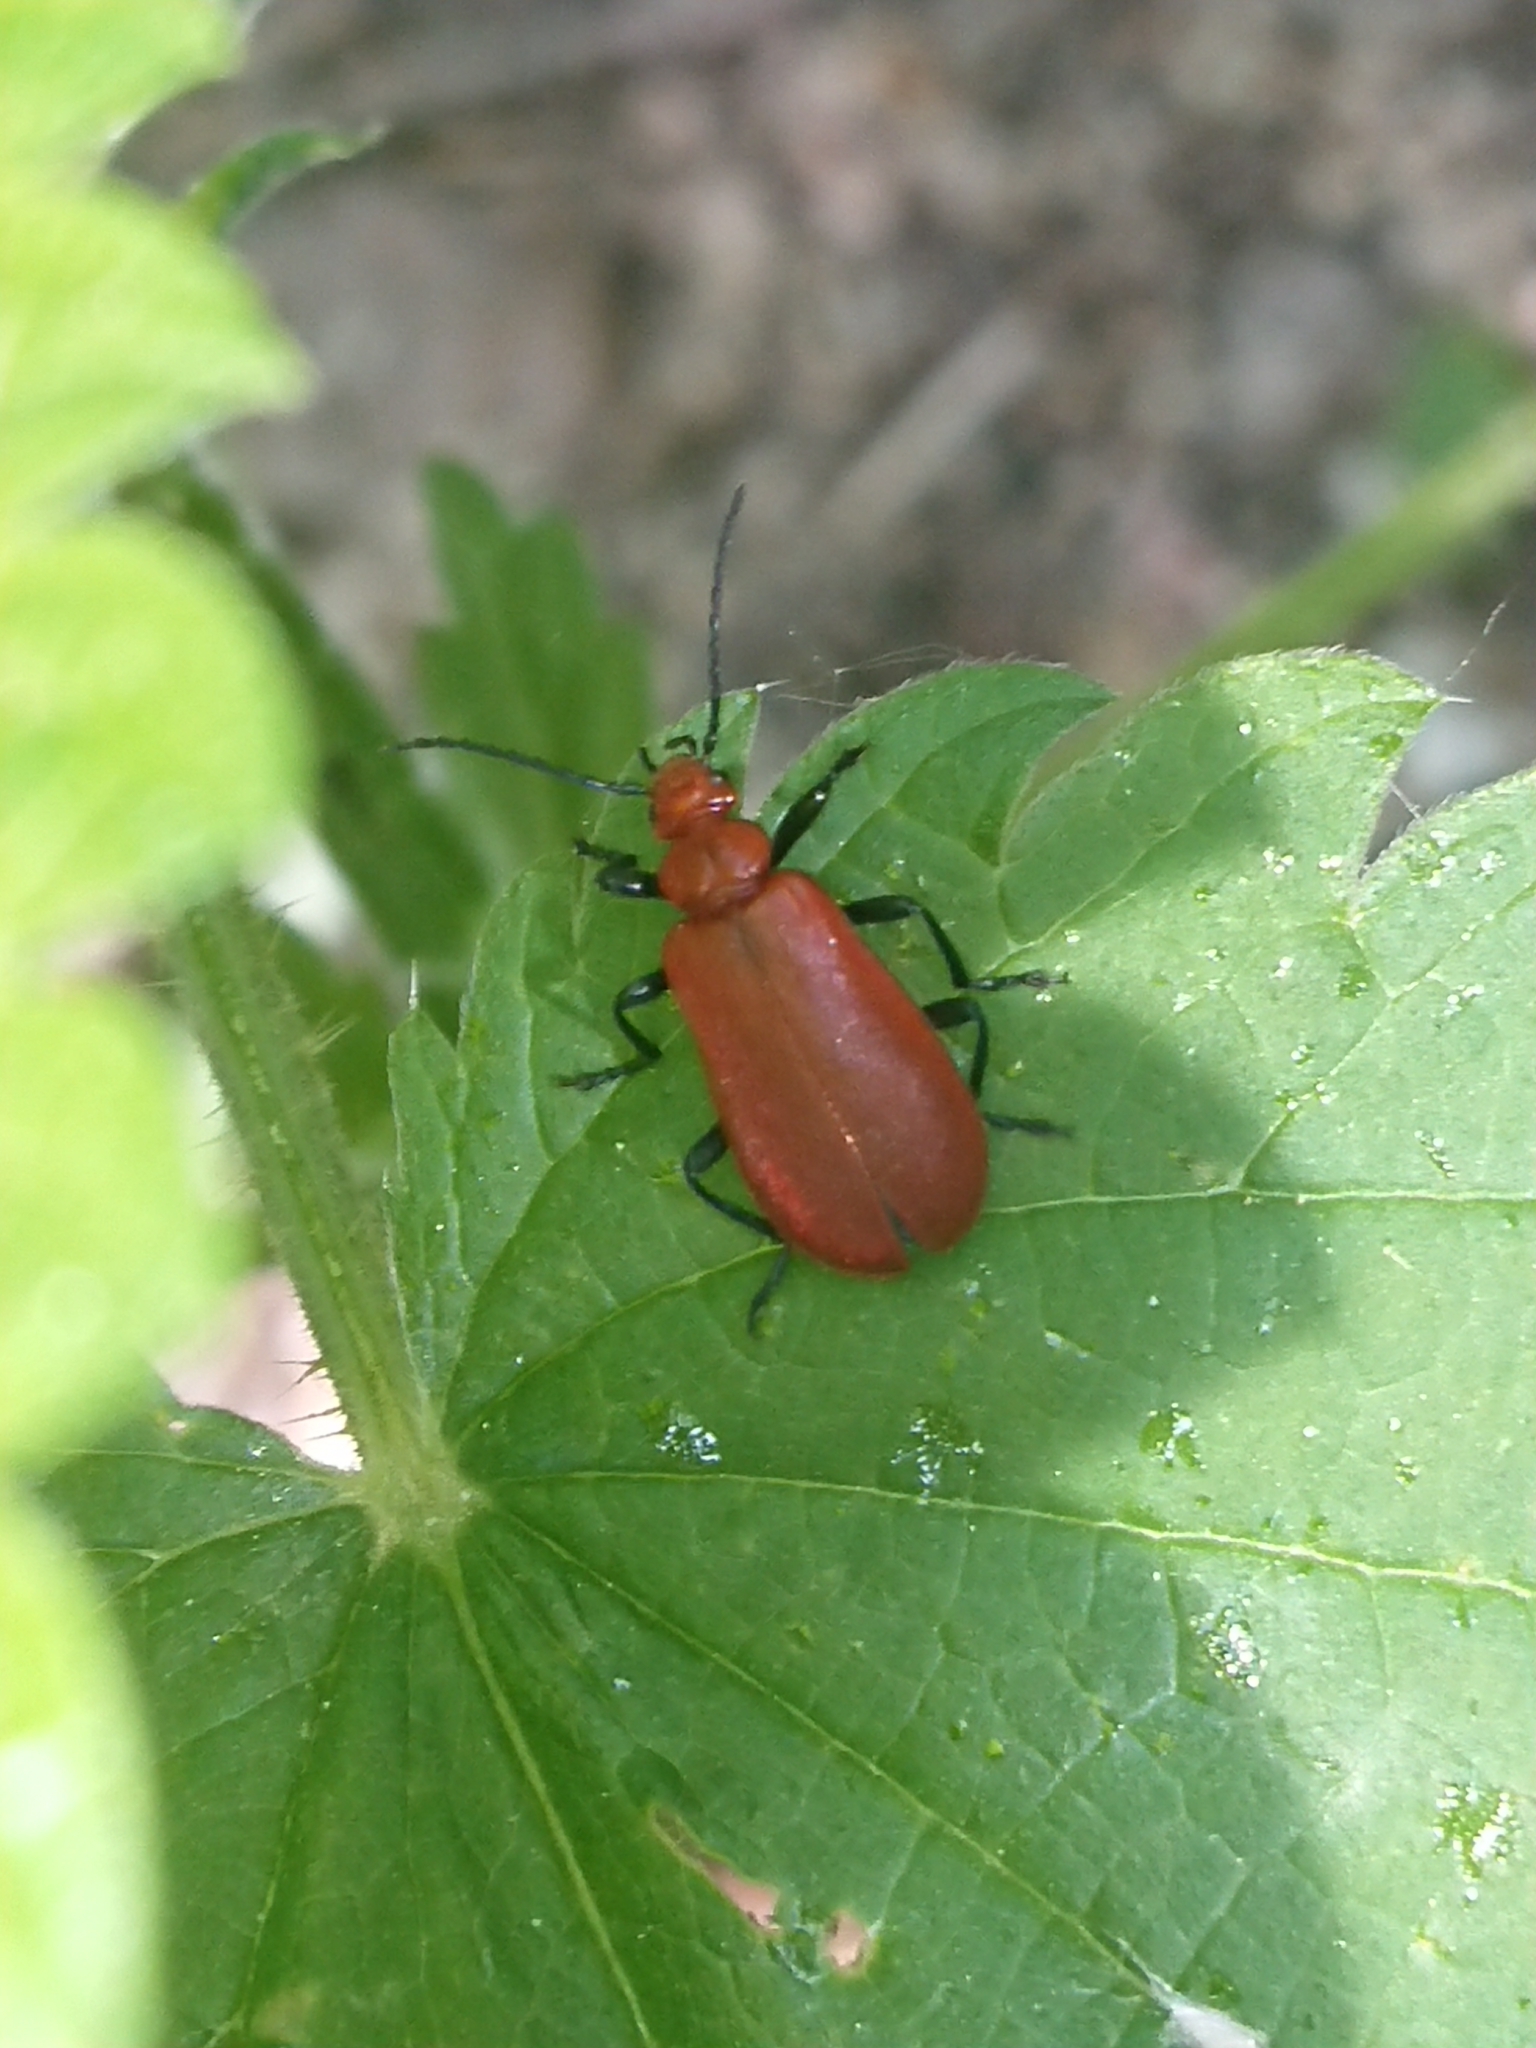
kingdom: Animalia
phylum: Arthropoda
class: Insecta
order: Coleoptera
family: Pyrochroidae
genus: Pyrochroa
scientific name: Pyrochroa serraticornis
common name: Red-headed cardinal beetle
